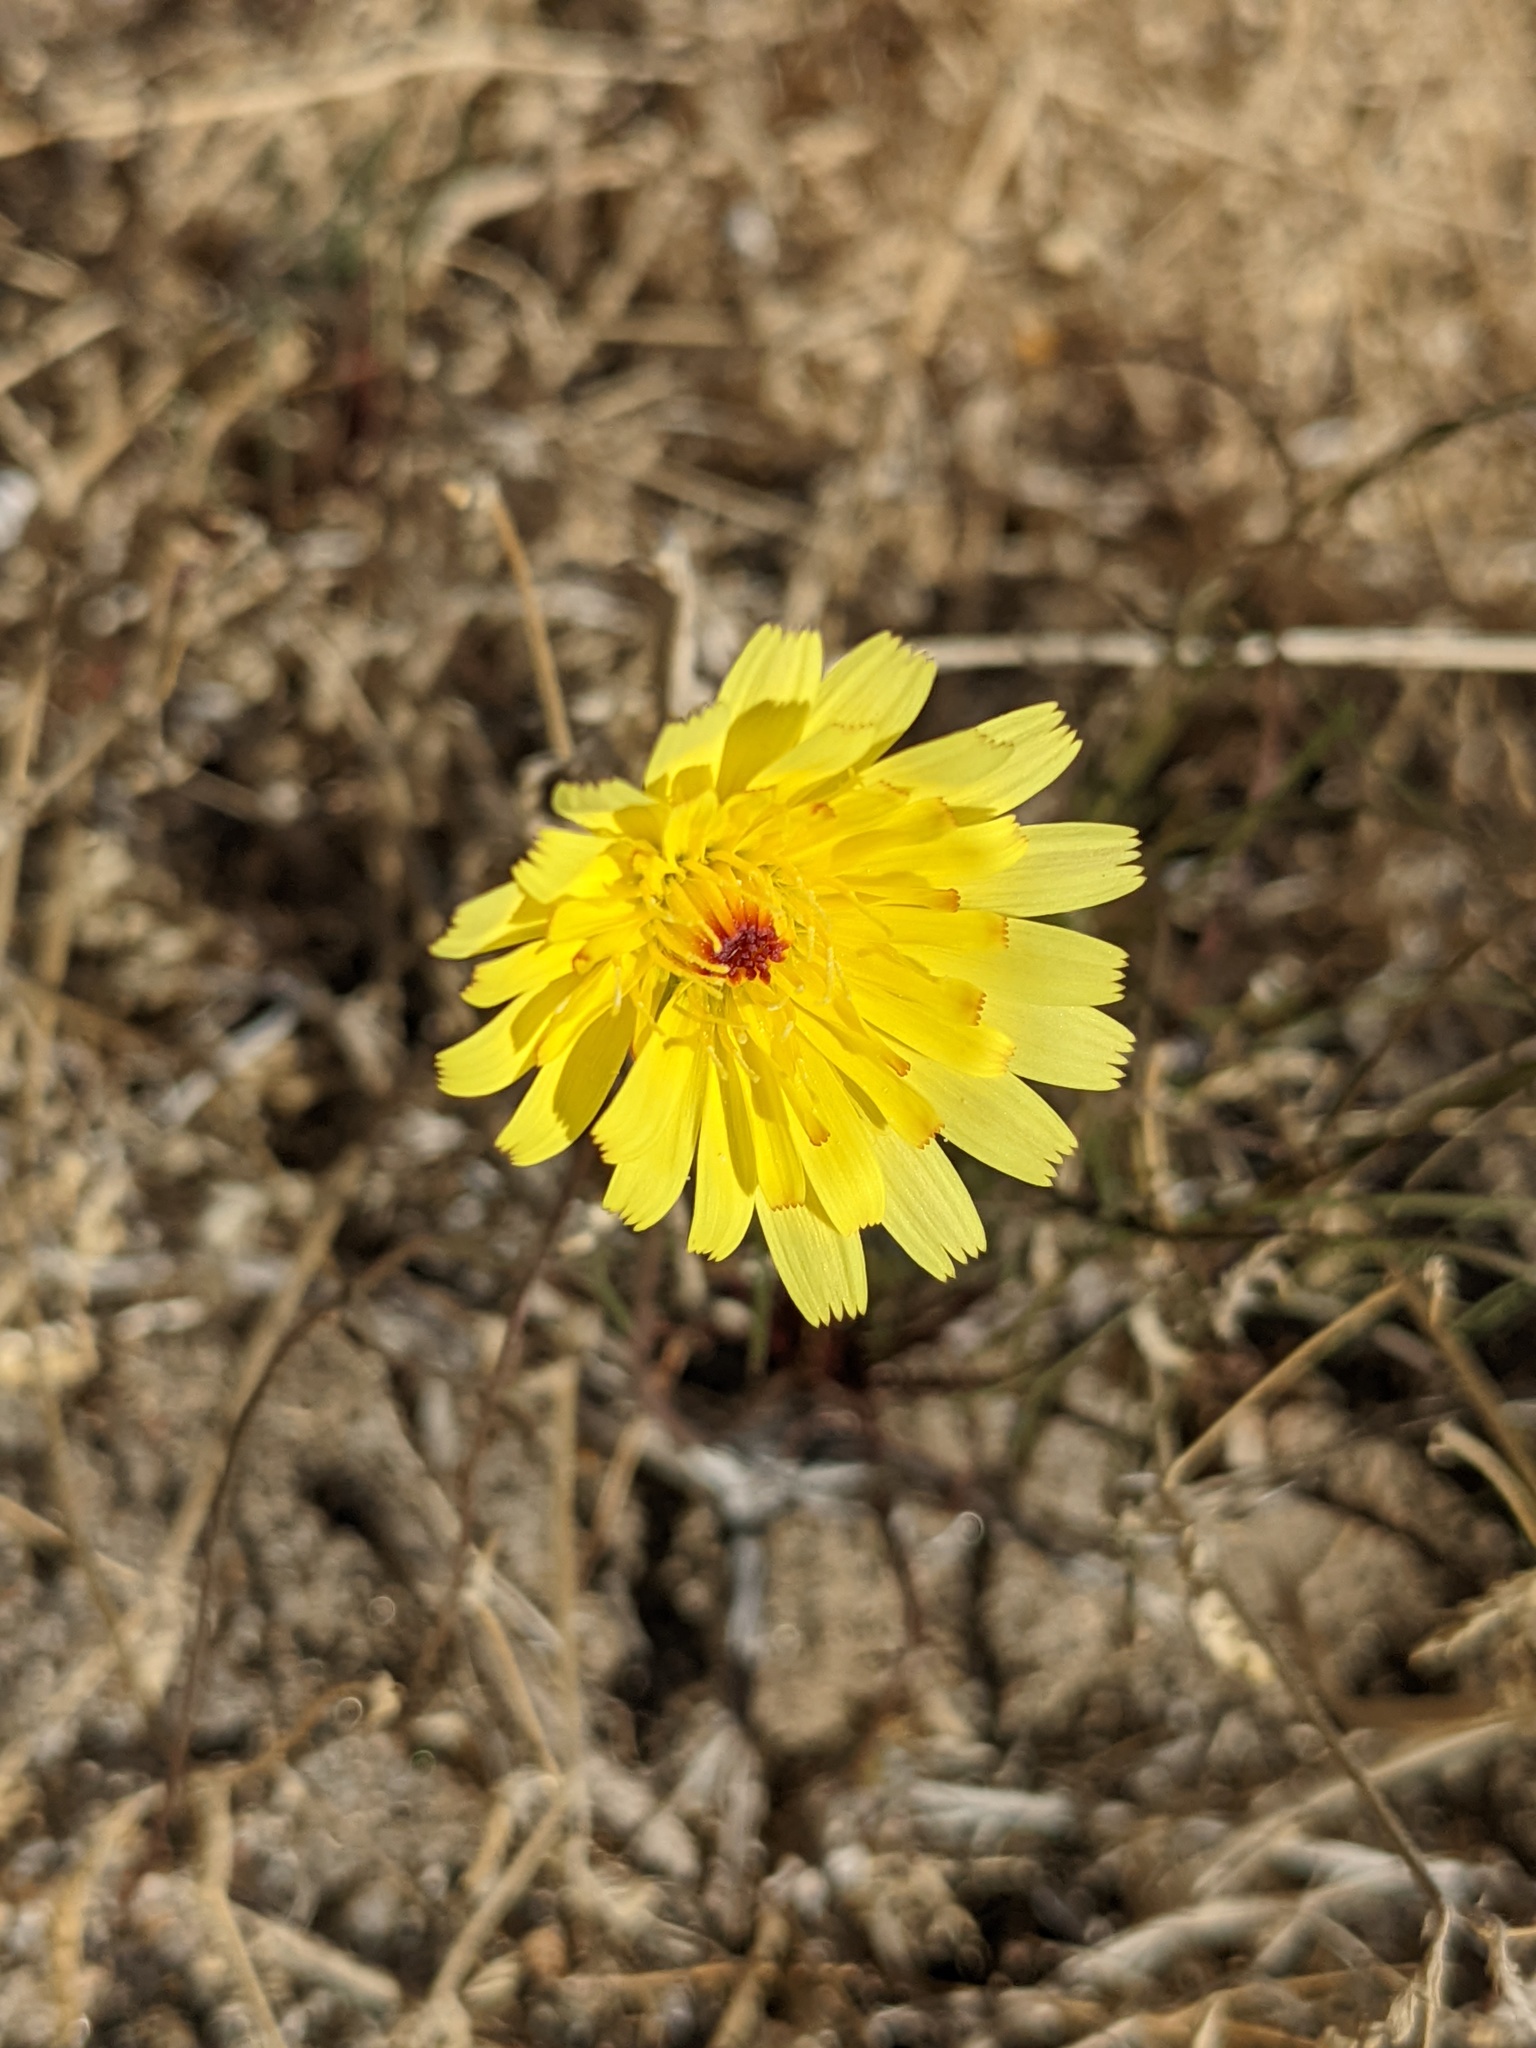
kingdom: Plantae
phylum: Tracheophyta
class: Magnoliopsida
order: Asterales
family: Asteraceae
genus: Malacothrix
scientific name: Malacothrix glabrata
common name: Smooth desert-dandelion
